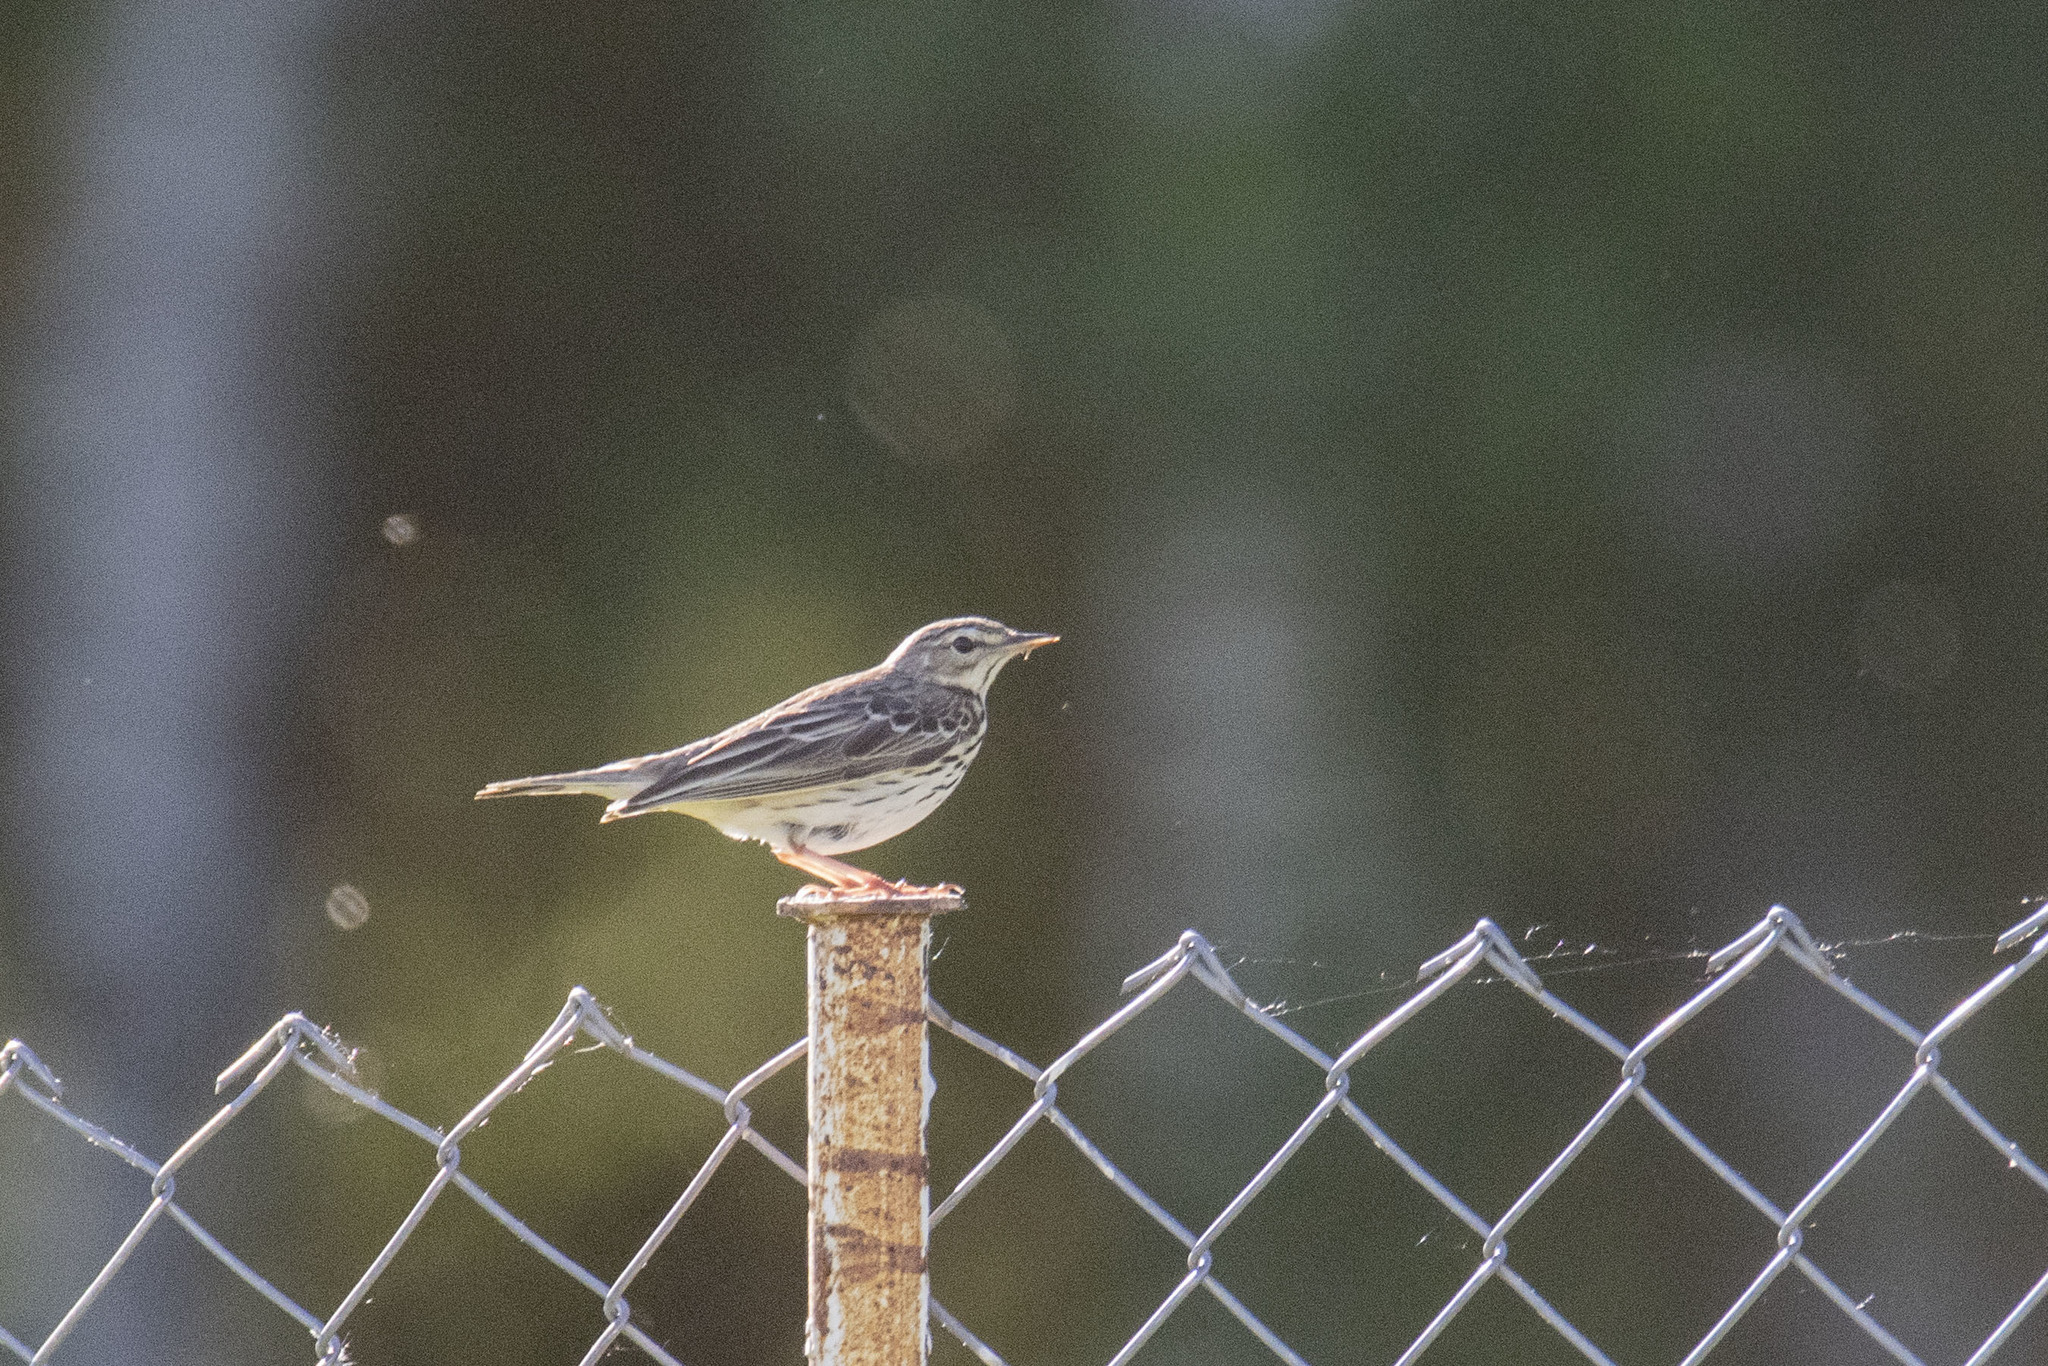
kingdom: Animalia
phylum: Chordata
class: Aves
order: Passeriformes
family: Motacillidae
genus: Anthus
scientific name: Anthus trivialis
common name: Tree pipit
